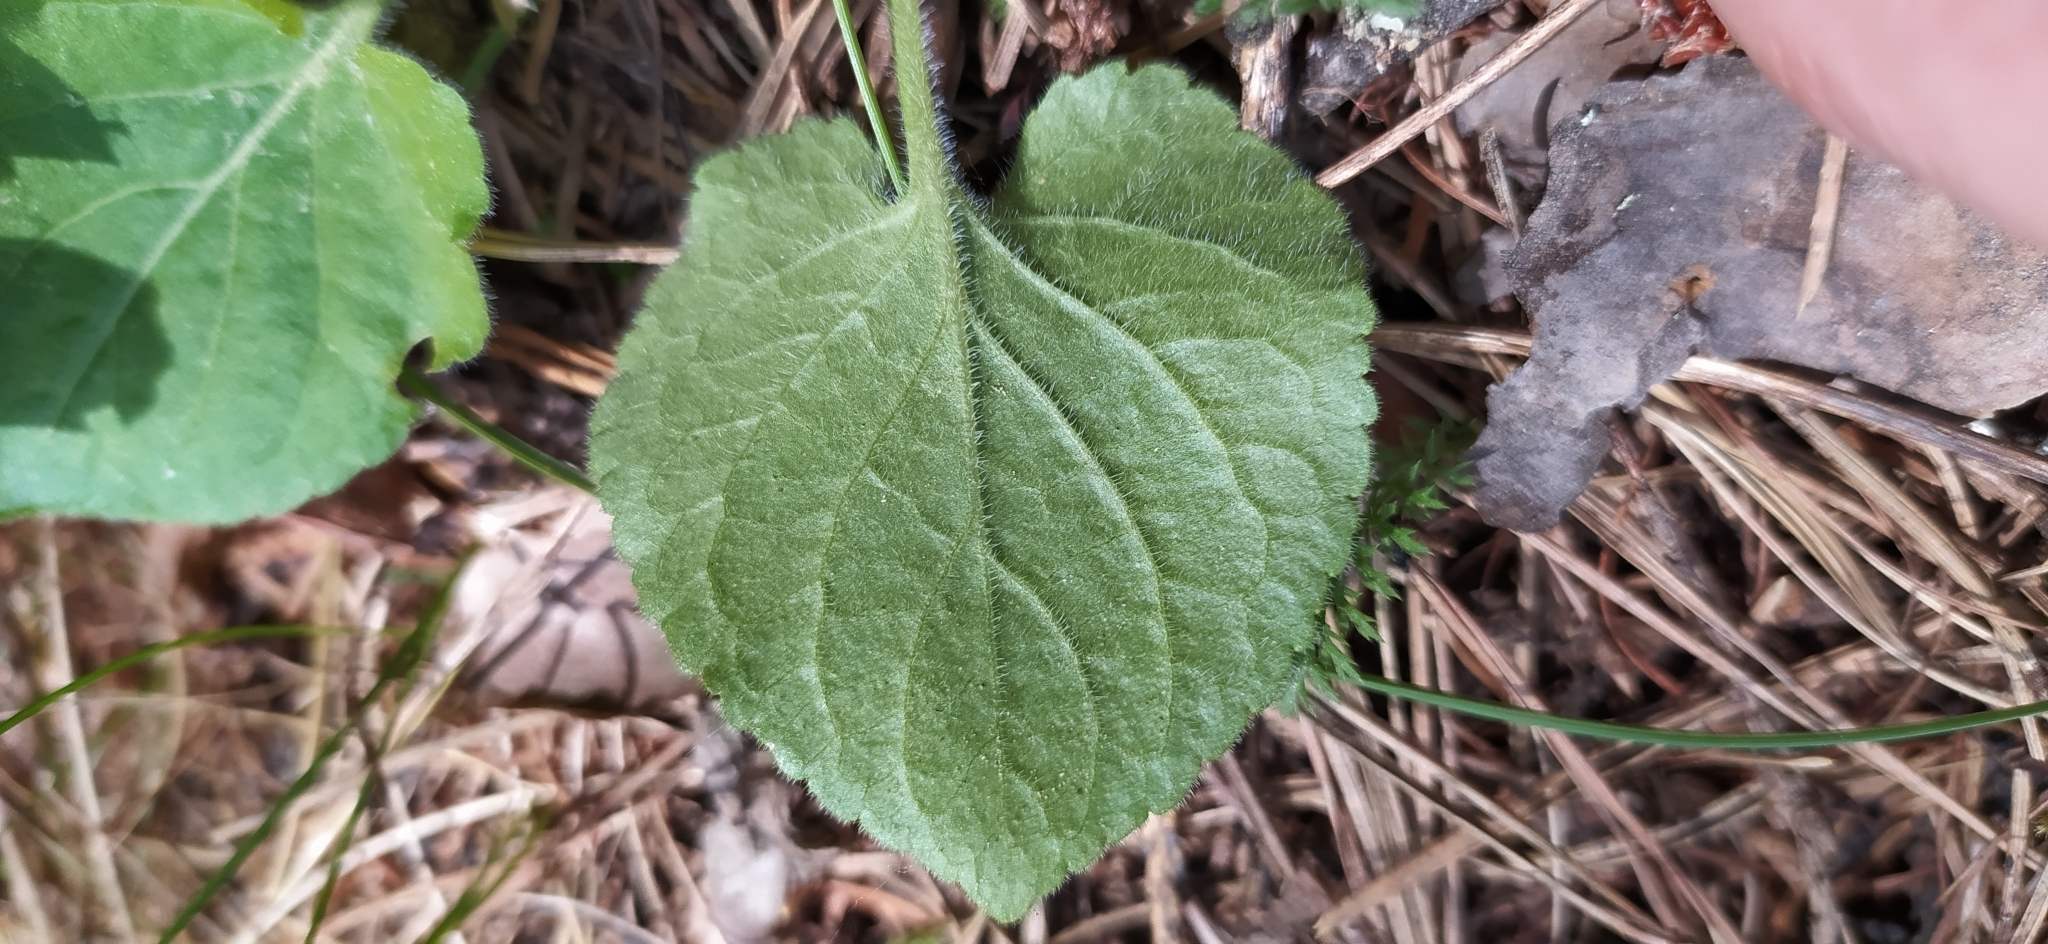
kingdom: Plantae
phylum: Tracheophyta
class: Magnoliopsida
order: Malpighiales
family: Violaceae
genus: Viola
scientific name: Viola collina
